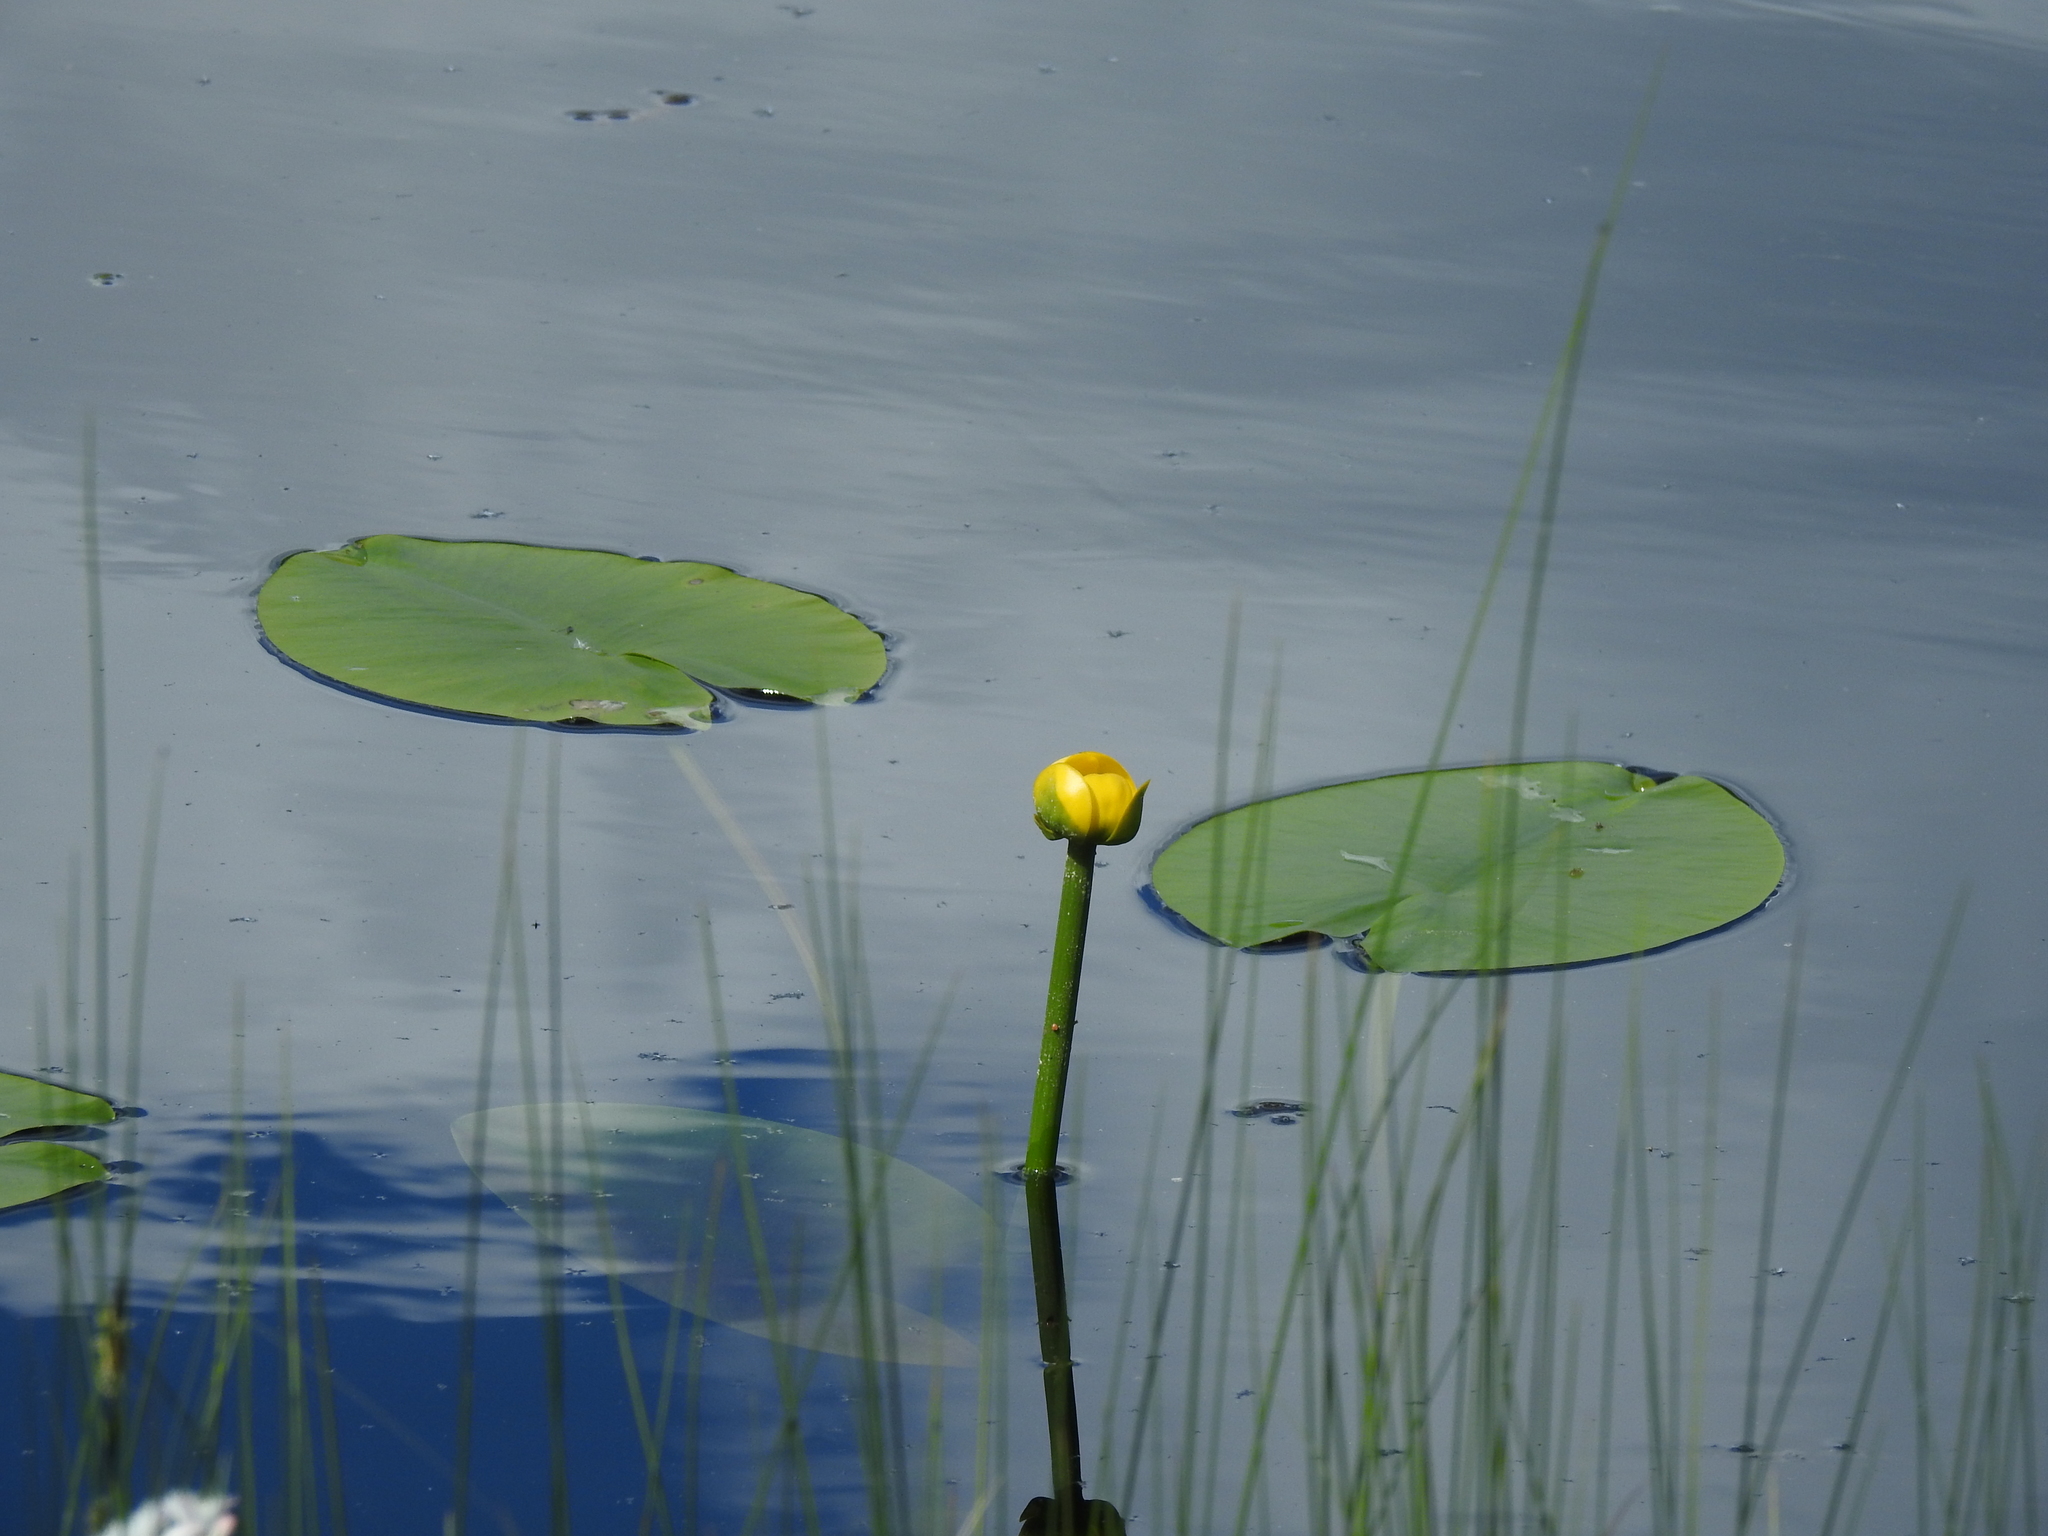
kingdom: Plantae
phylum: Tracheophyta
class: Magnoliopsida
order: Nymphaeales
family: Nymphaeaceae
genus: Nuphar
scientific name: Nuphar lutea
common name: Yellow water-lily
